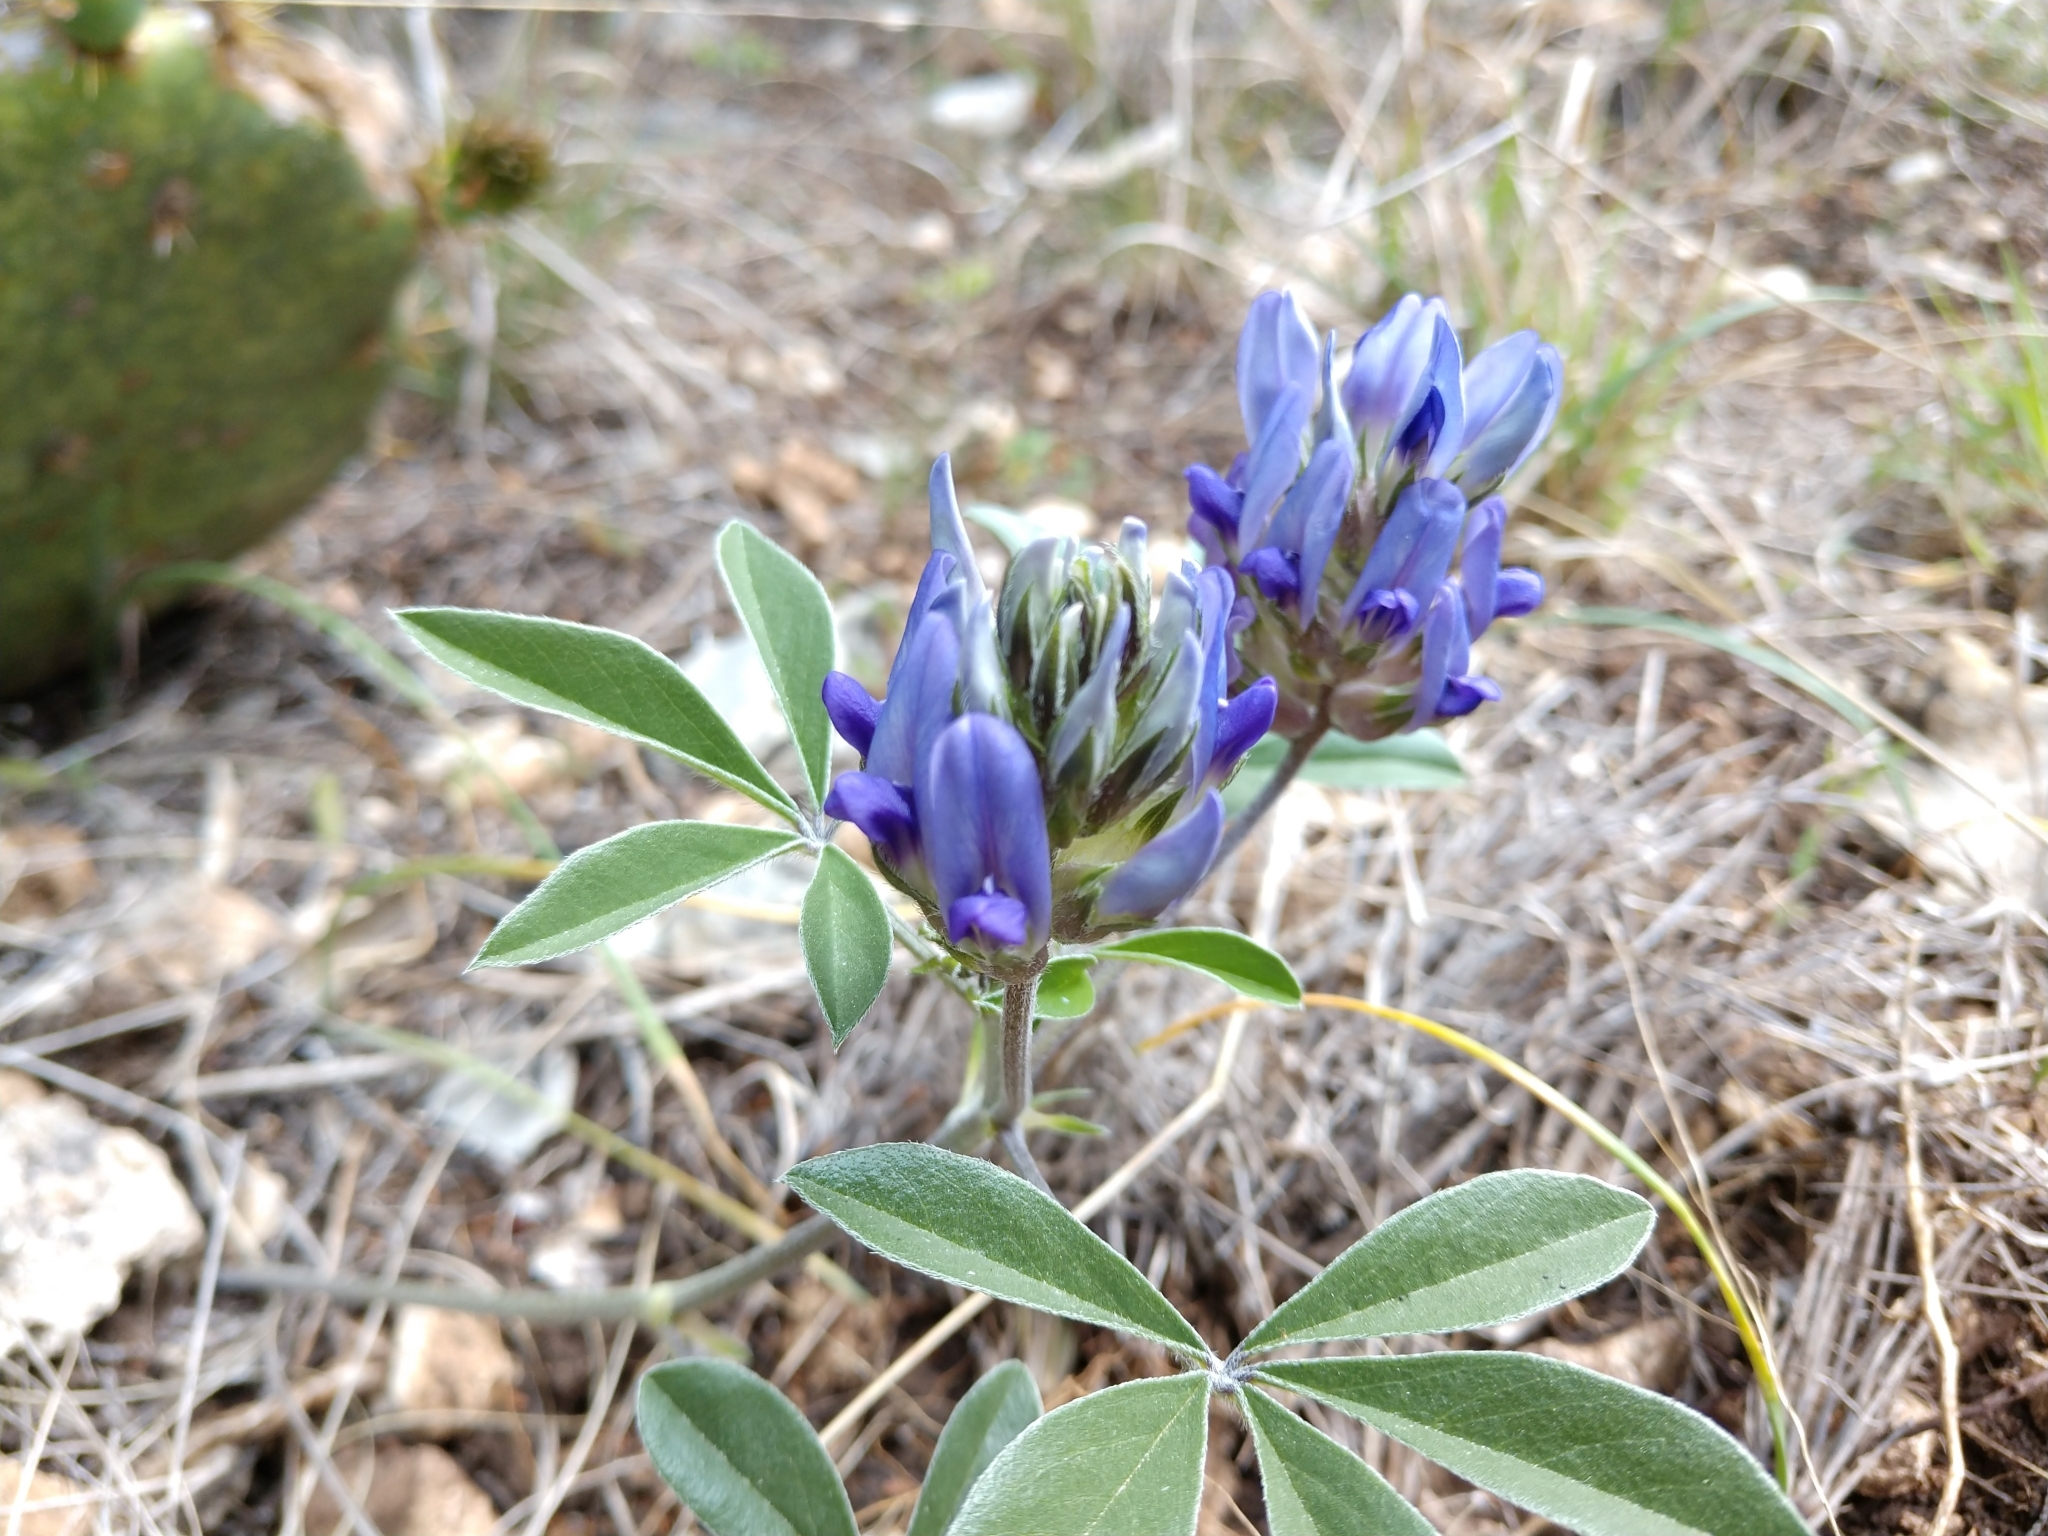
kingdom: Plantae
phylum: Tracheophyta
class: Magnoliopsida
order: Fabales
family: Fabaceae
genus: Pediomelum
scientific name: Pediomelum latestipulatum
